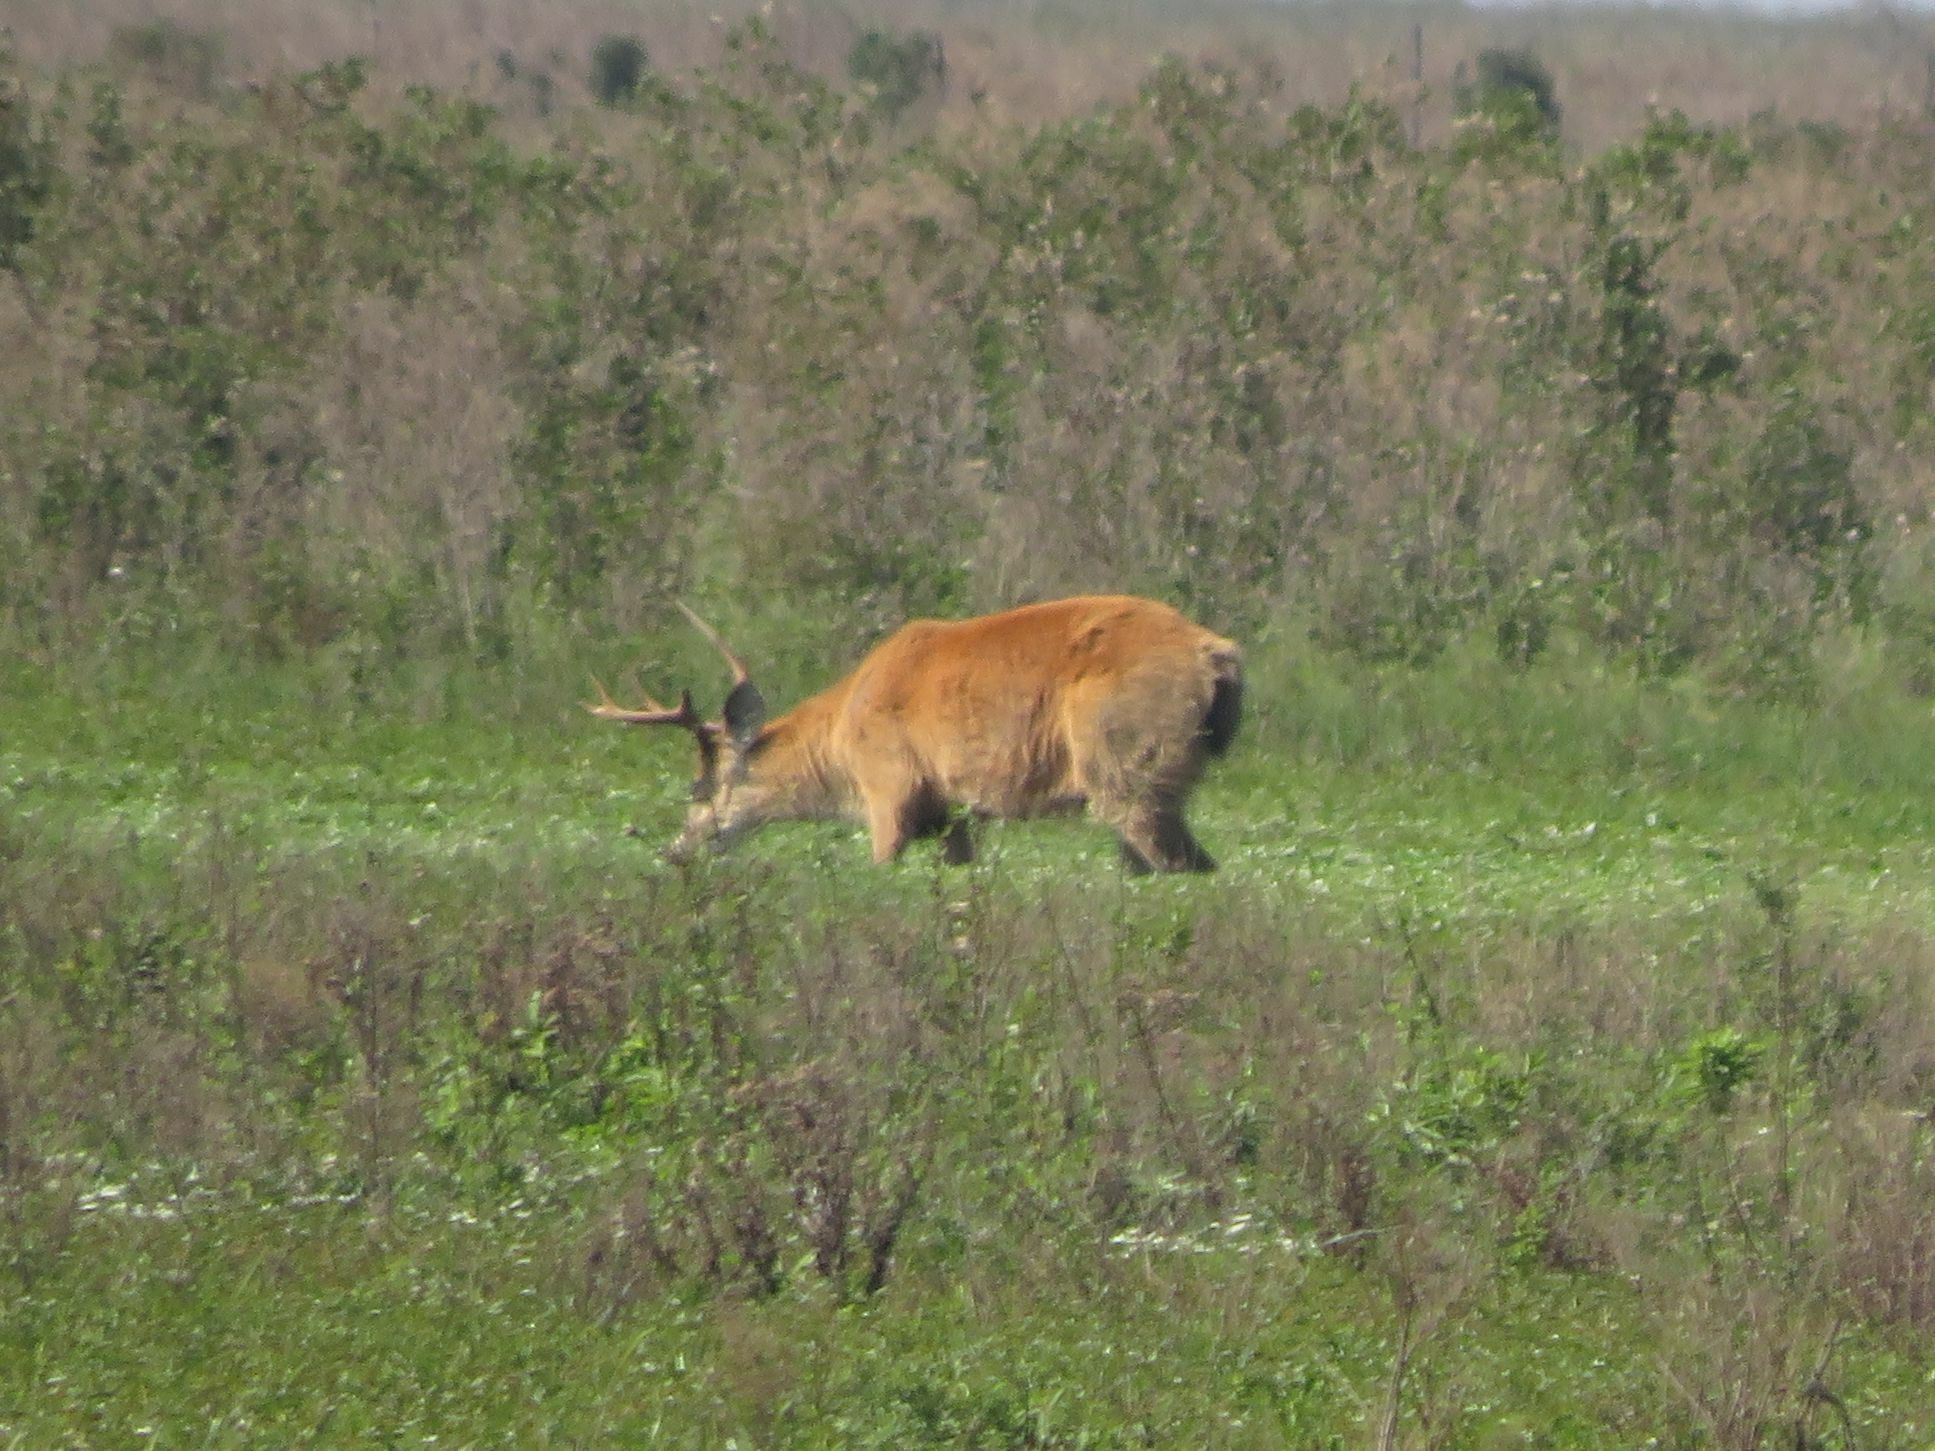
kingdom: Animalia
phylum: Chordata
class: Mammalia
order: Artiodactyla
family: Cervidae
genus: Blastocerus
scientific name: Blastocerus dichotomus
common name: Marsh deer
